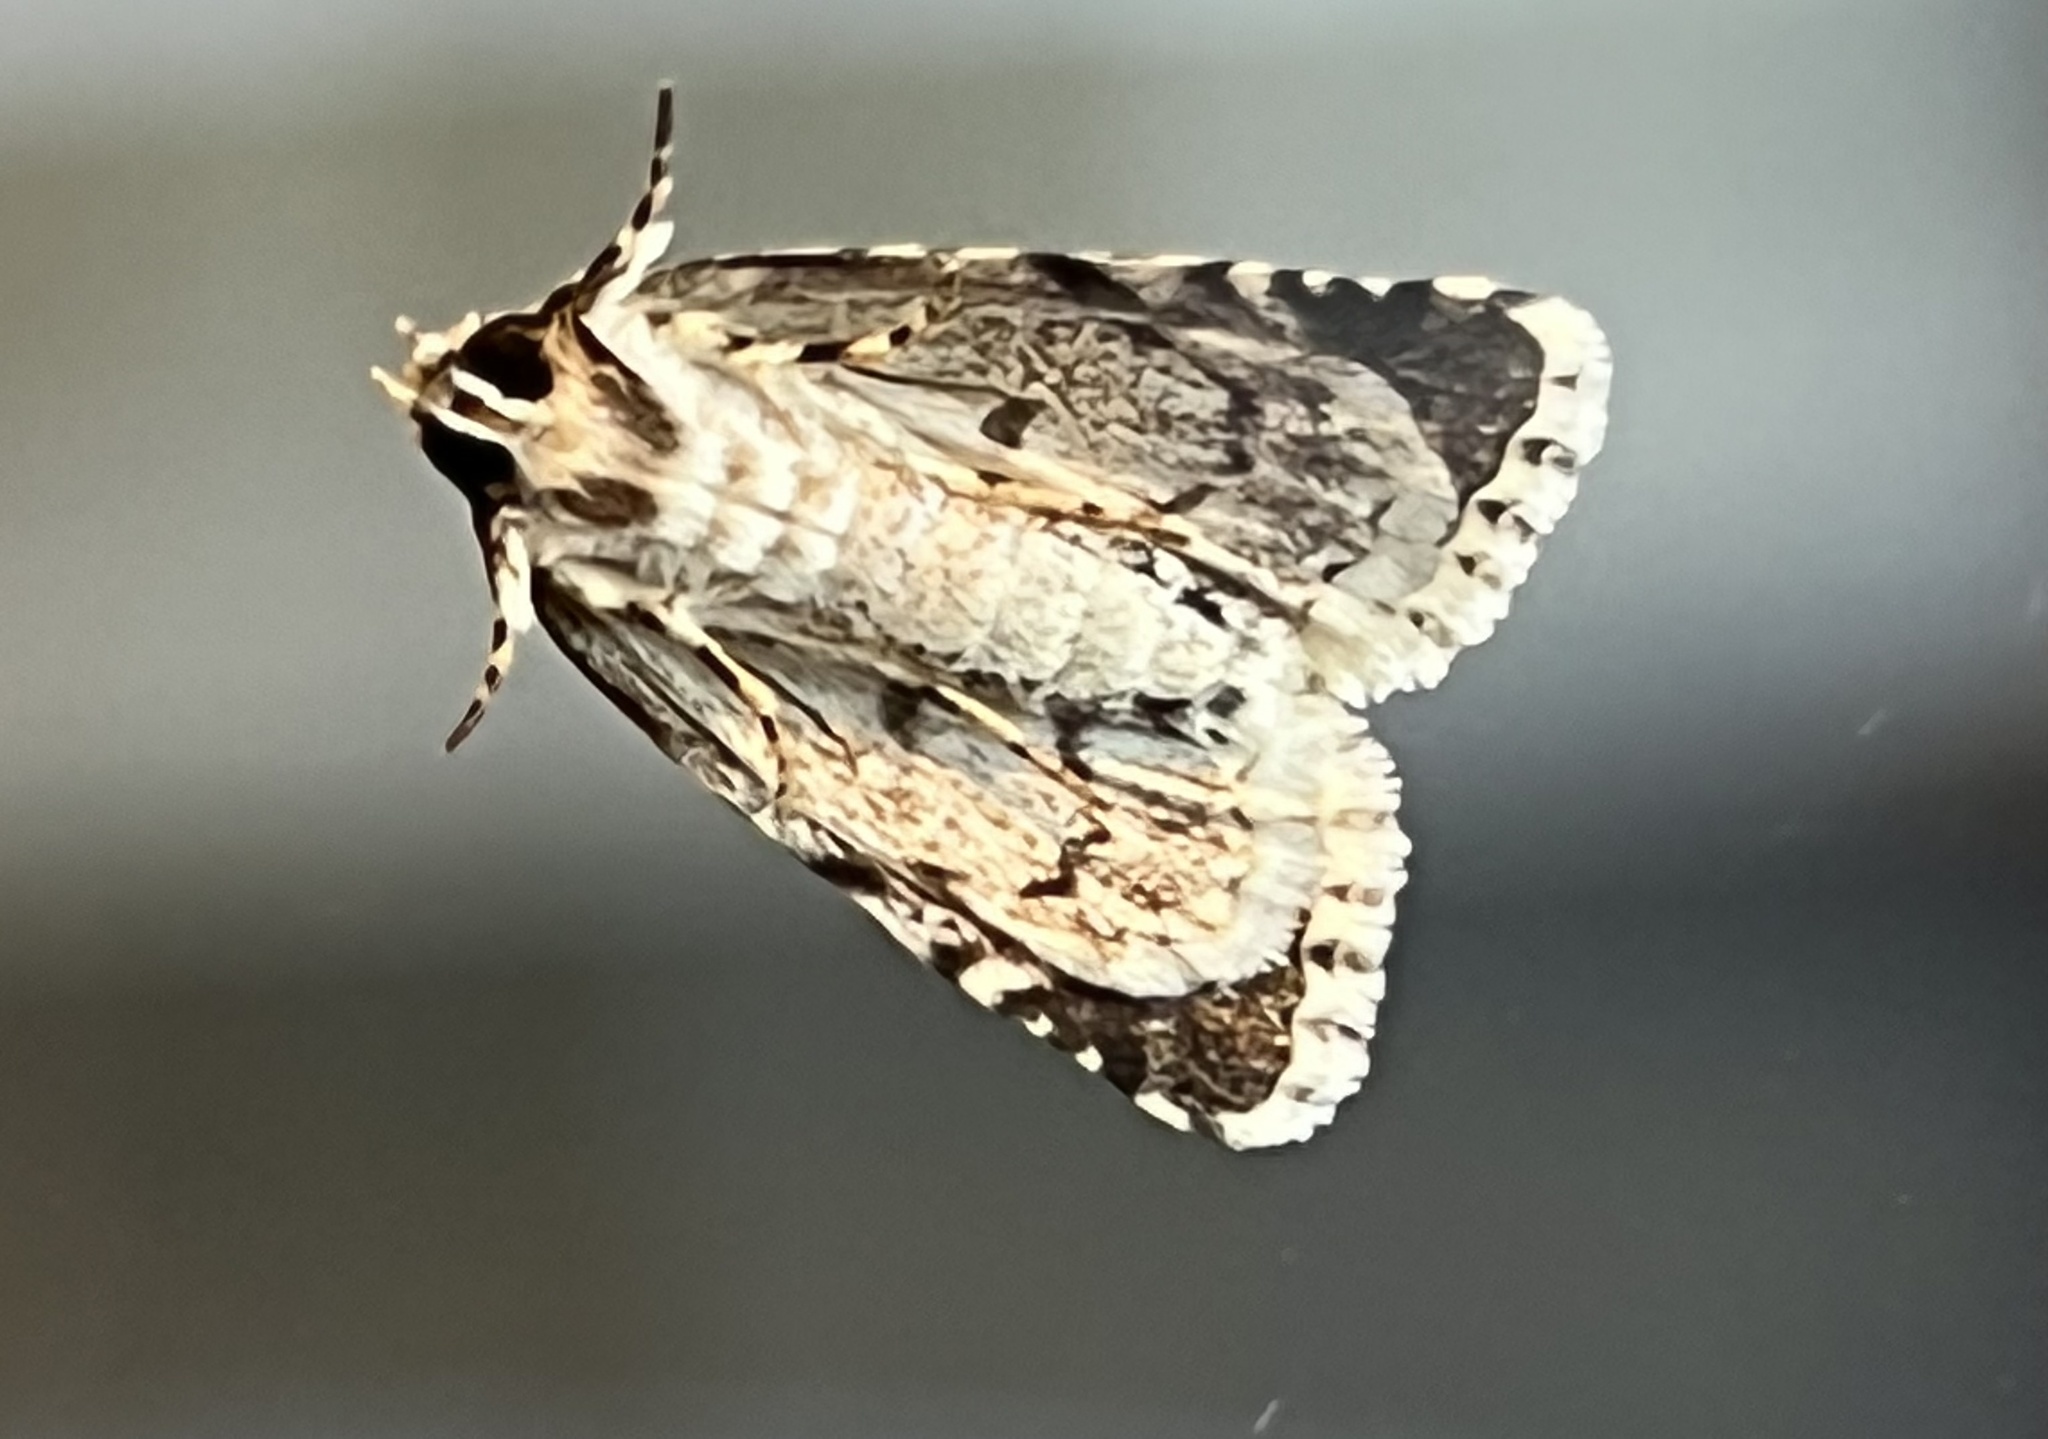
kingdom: Animalia
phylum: Arthropoda
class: Insecta
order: Lepidoptera
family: Noctuidae
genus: Nyctobrya
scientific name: Nyctobrya muralis
